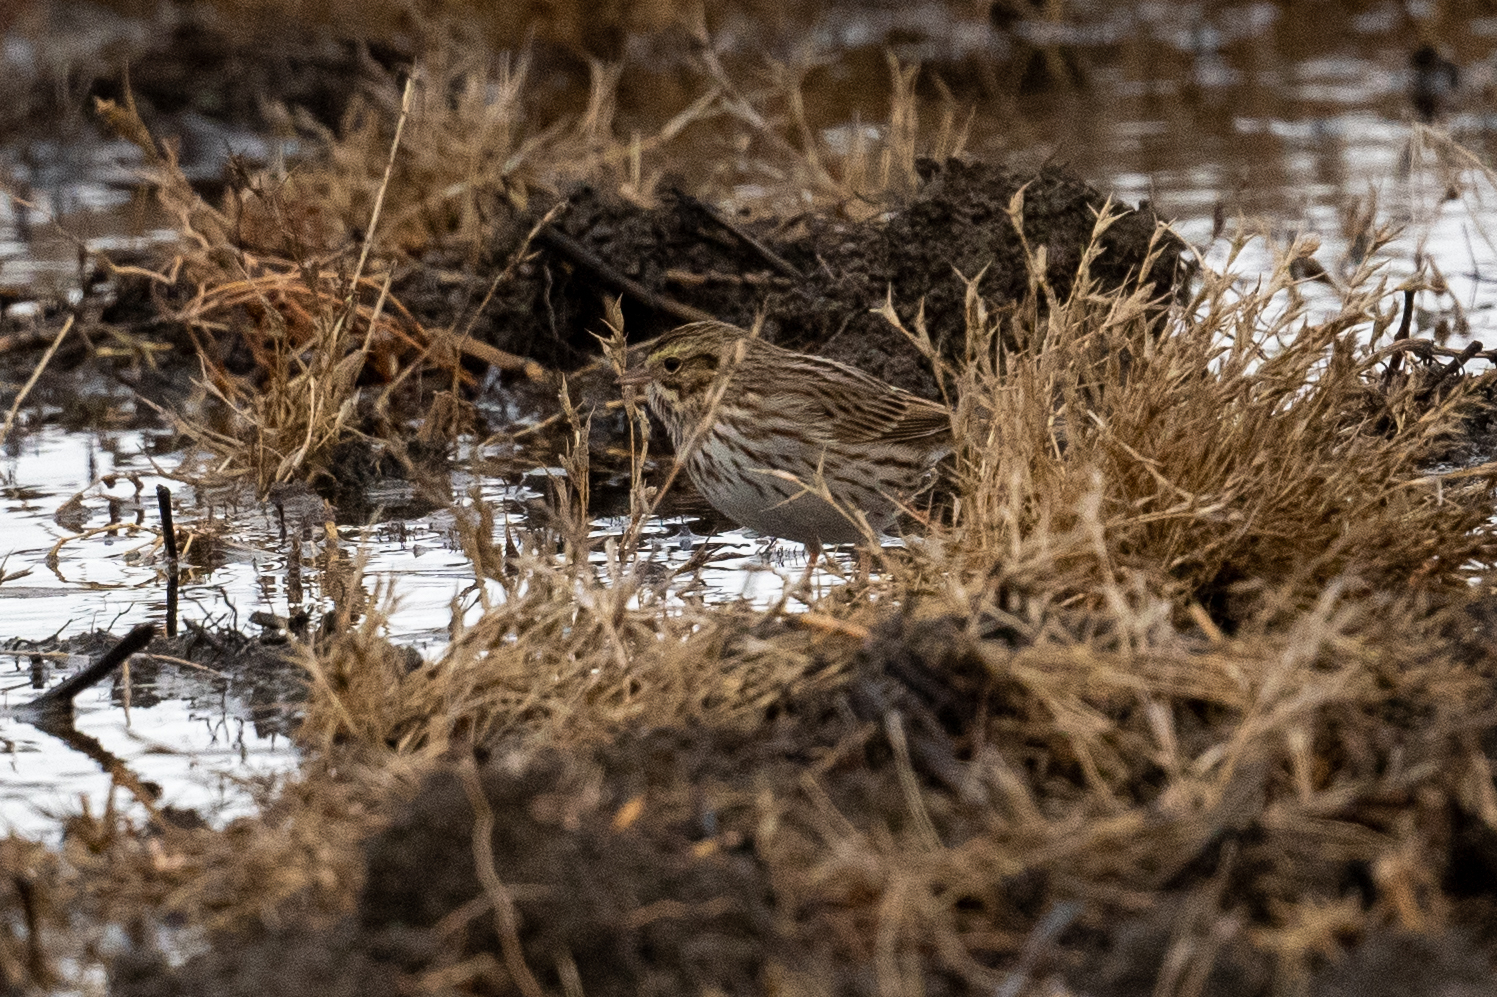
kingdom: Animalia
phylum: Chordata
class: Aves
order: Passeriformes
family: Passerellidae
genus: Passerculus
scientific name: Passerculus sandwichensis
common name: Savannah sparrow
